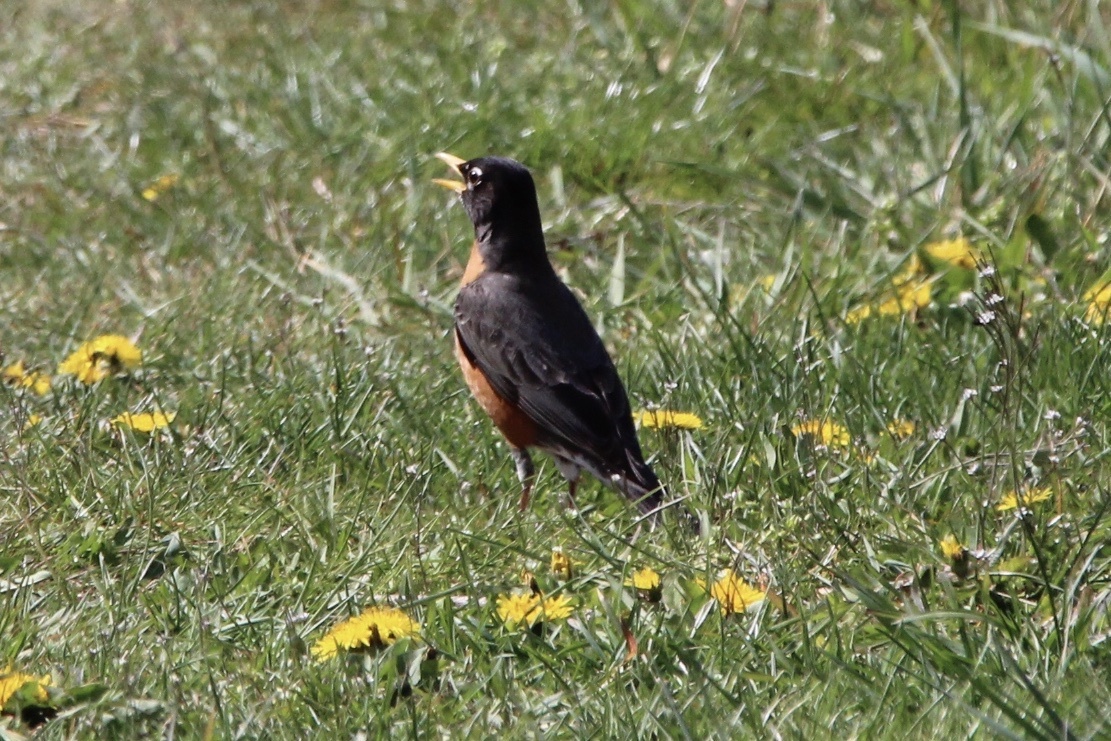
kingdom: Animalia
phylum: Chordata
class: Aves
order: Passeriformes
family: Turdidae
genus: Turdus
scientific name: Turdus migratorius
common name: American robin
